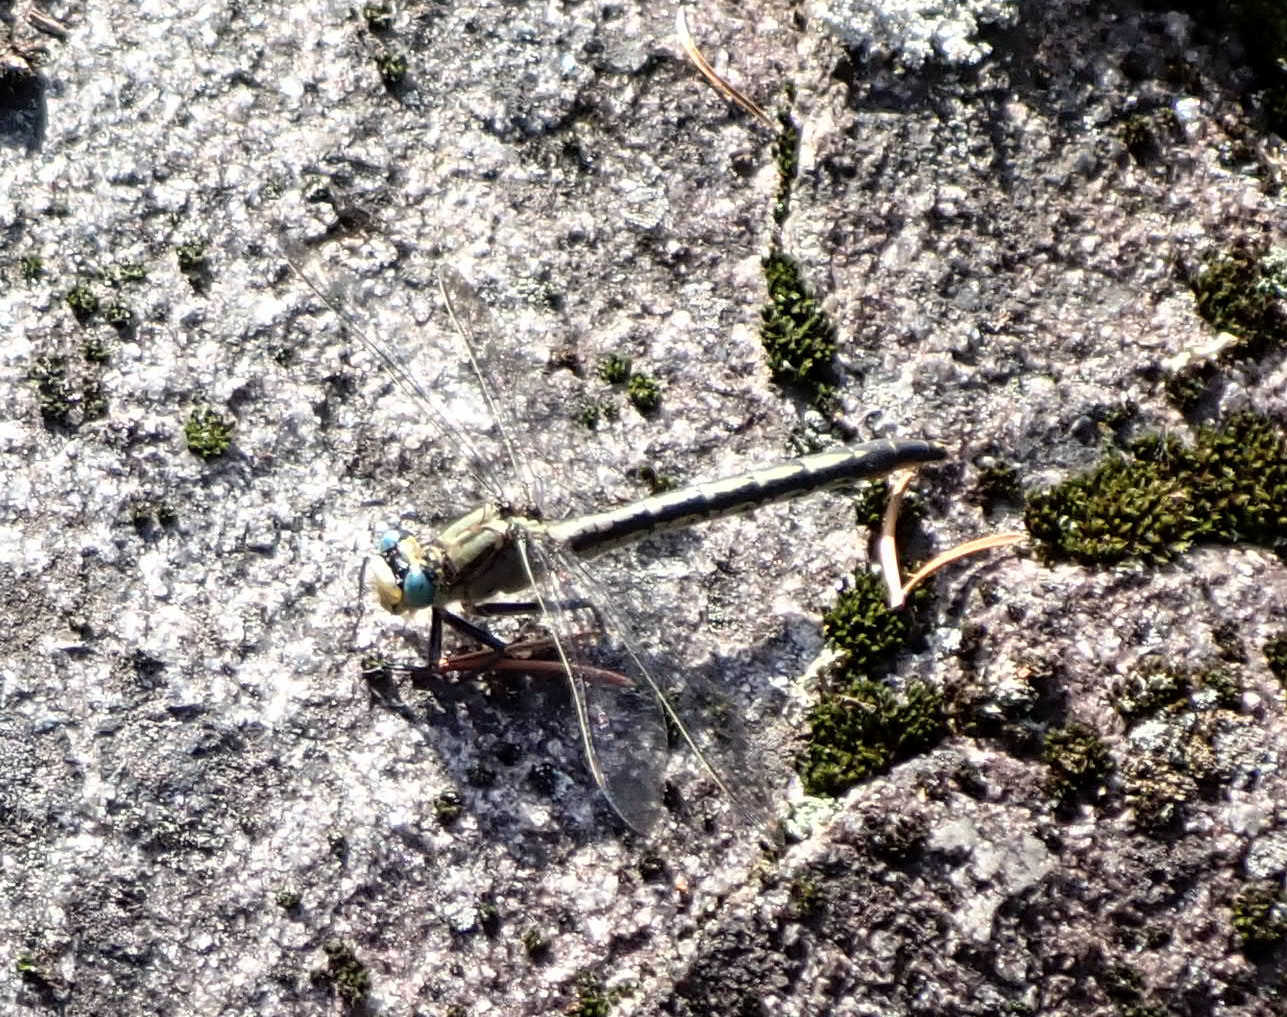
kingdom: Animalia
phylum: Arthropoda
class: Insecta
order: Odonata
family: Gomphidae
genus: Arigomphus
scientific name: Arigomphus cornutus
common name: Horned clubtail
